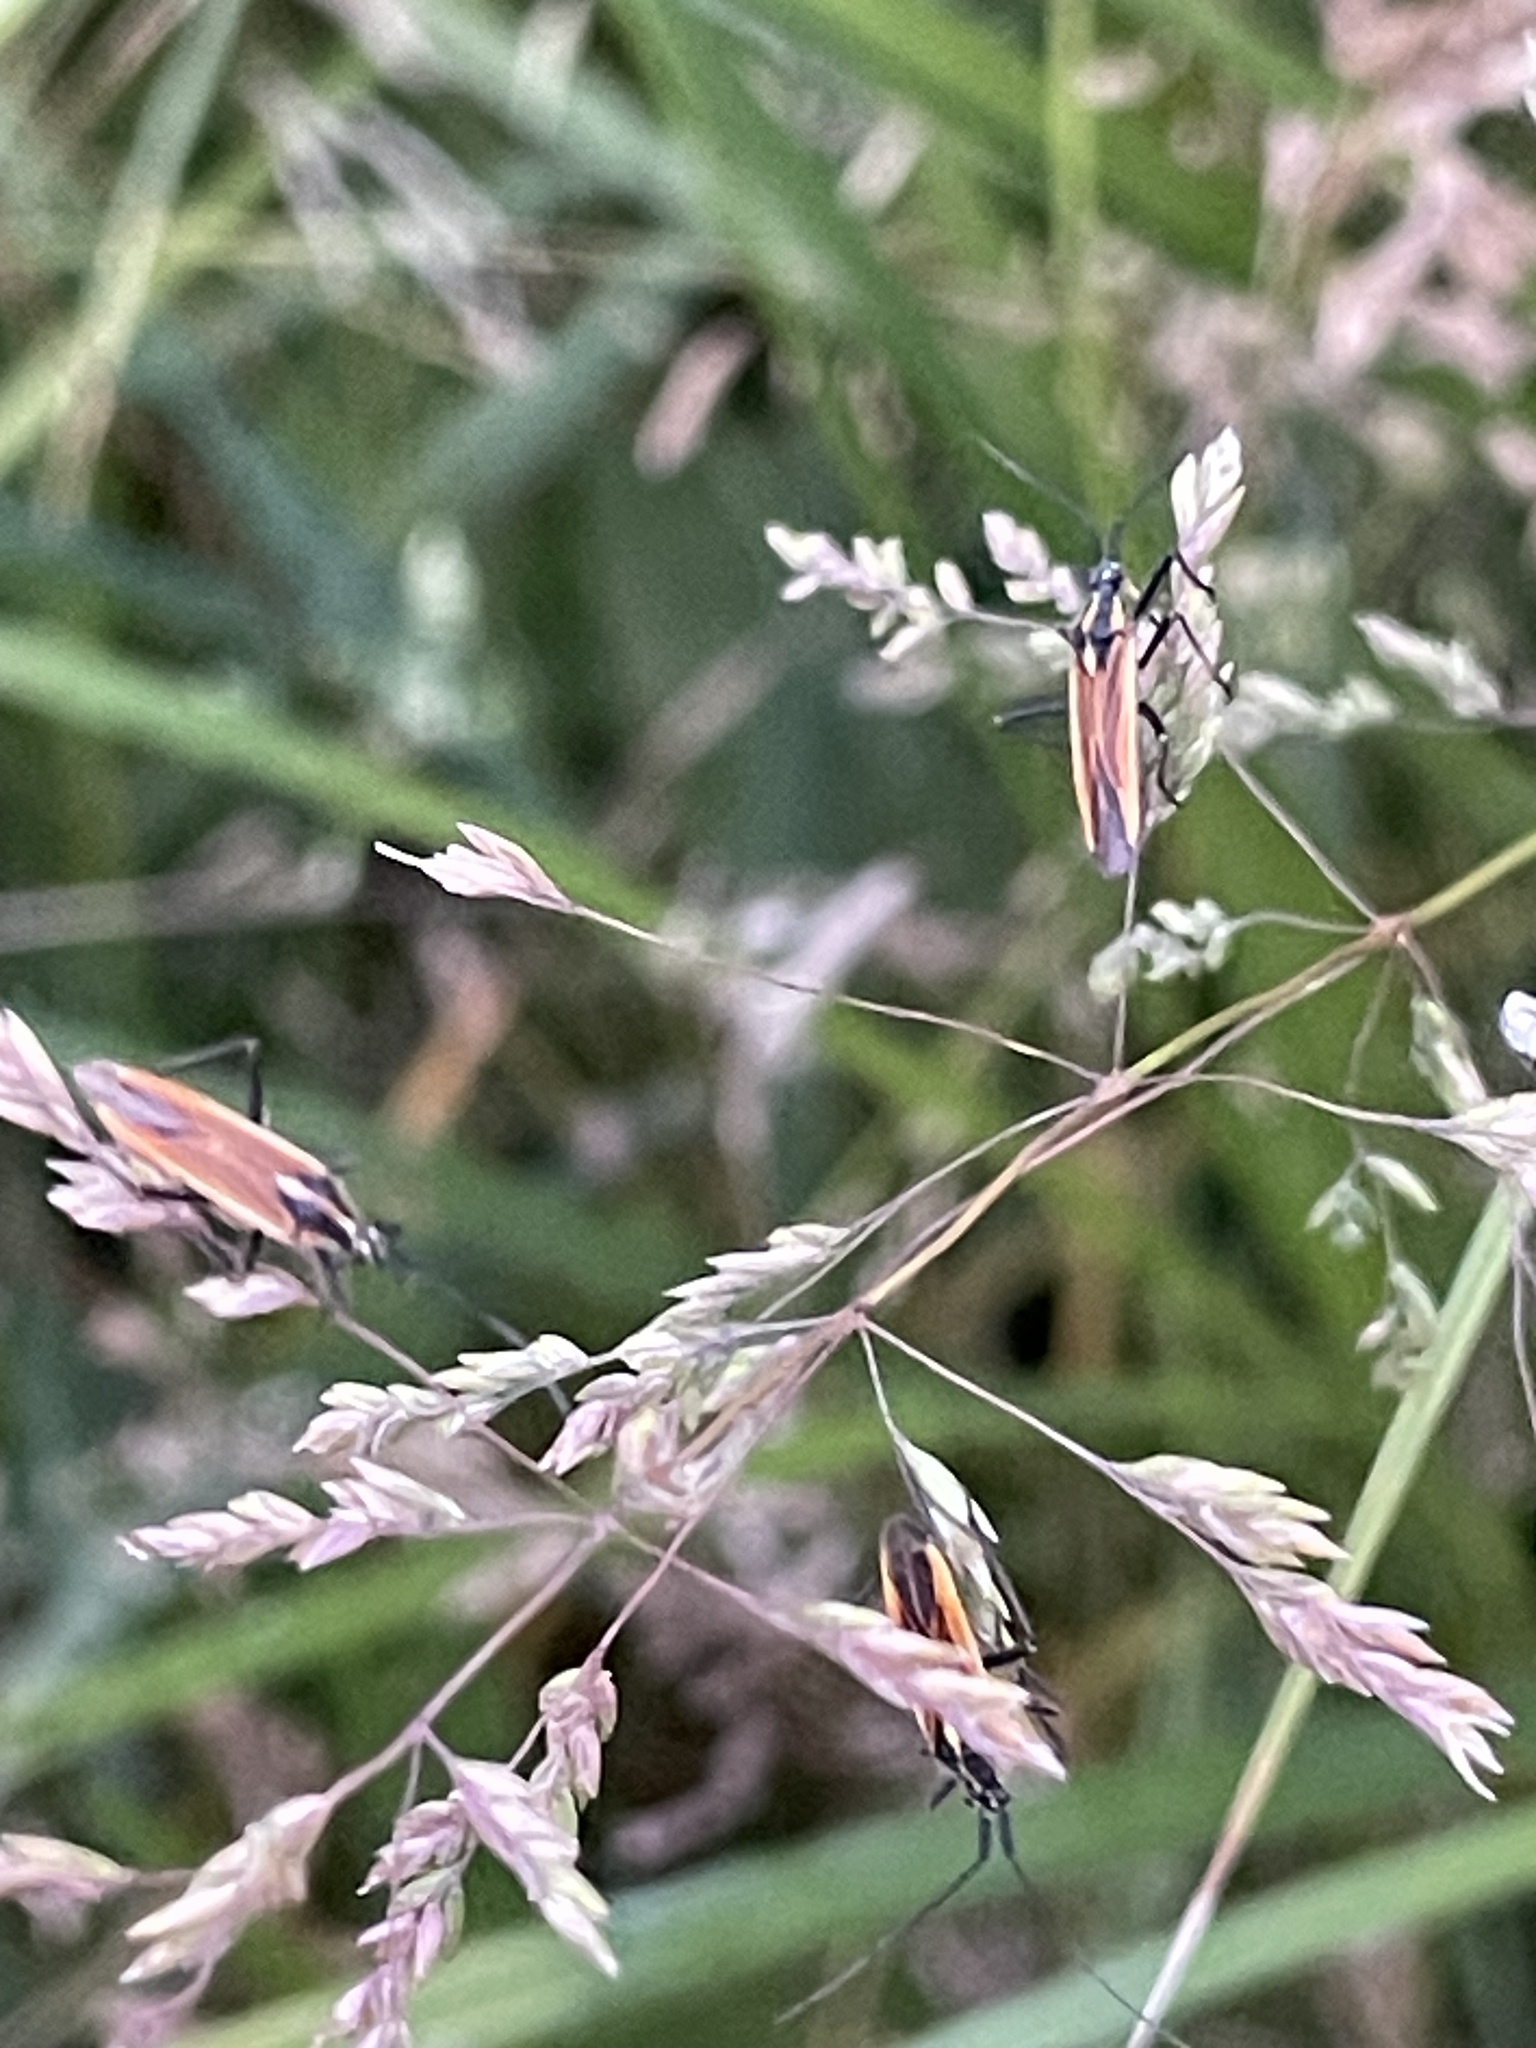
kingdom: Animalia
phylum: Arthropoda
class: Insecta
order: Hemiptera
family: Miridae
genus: Leptopterna
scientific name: Leptopterna dolabrata
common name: Meadow plant bug
